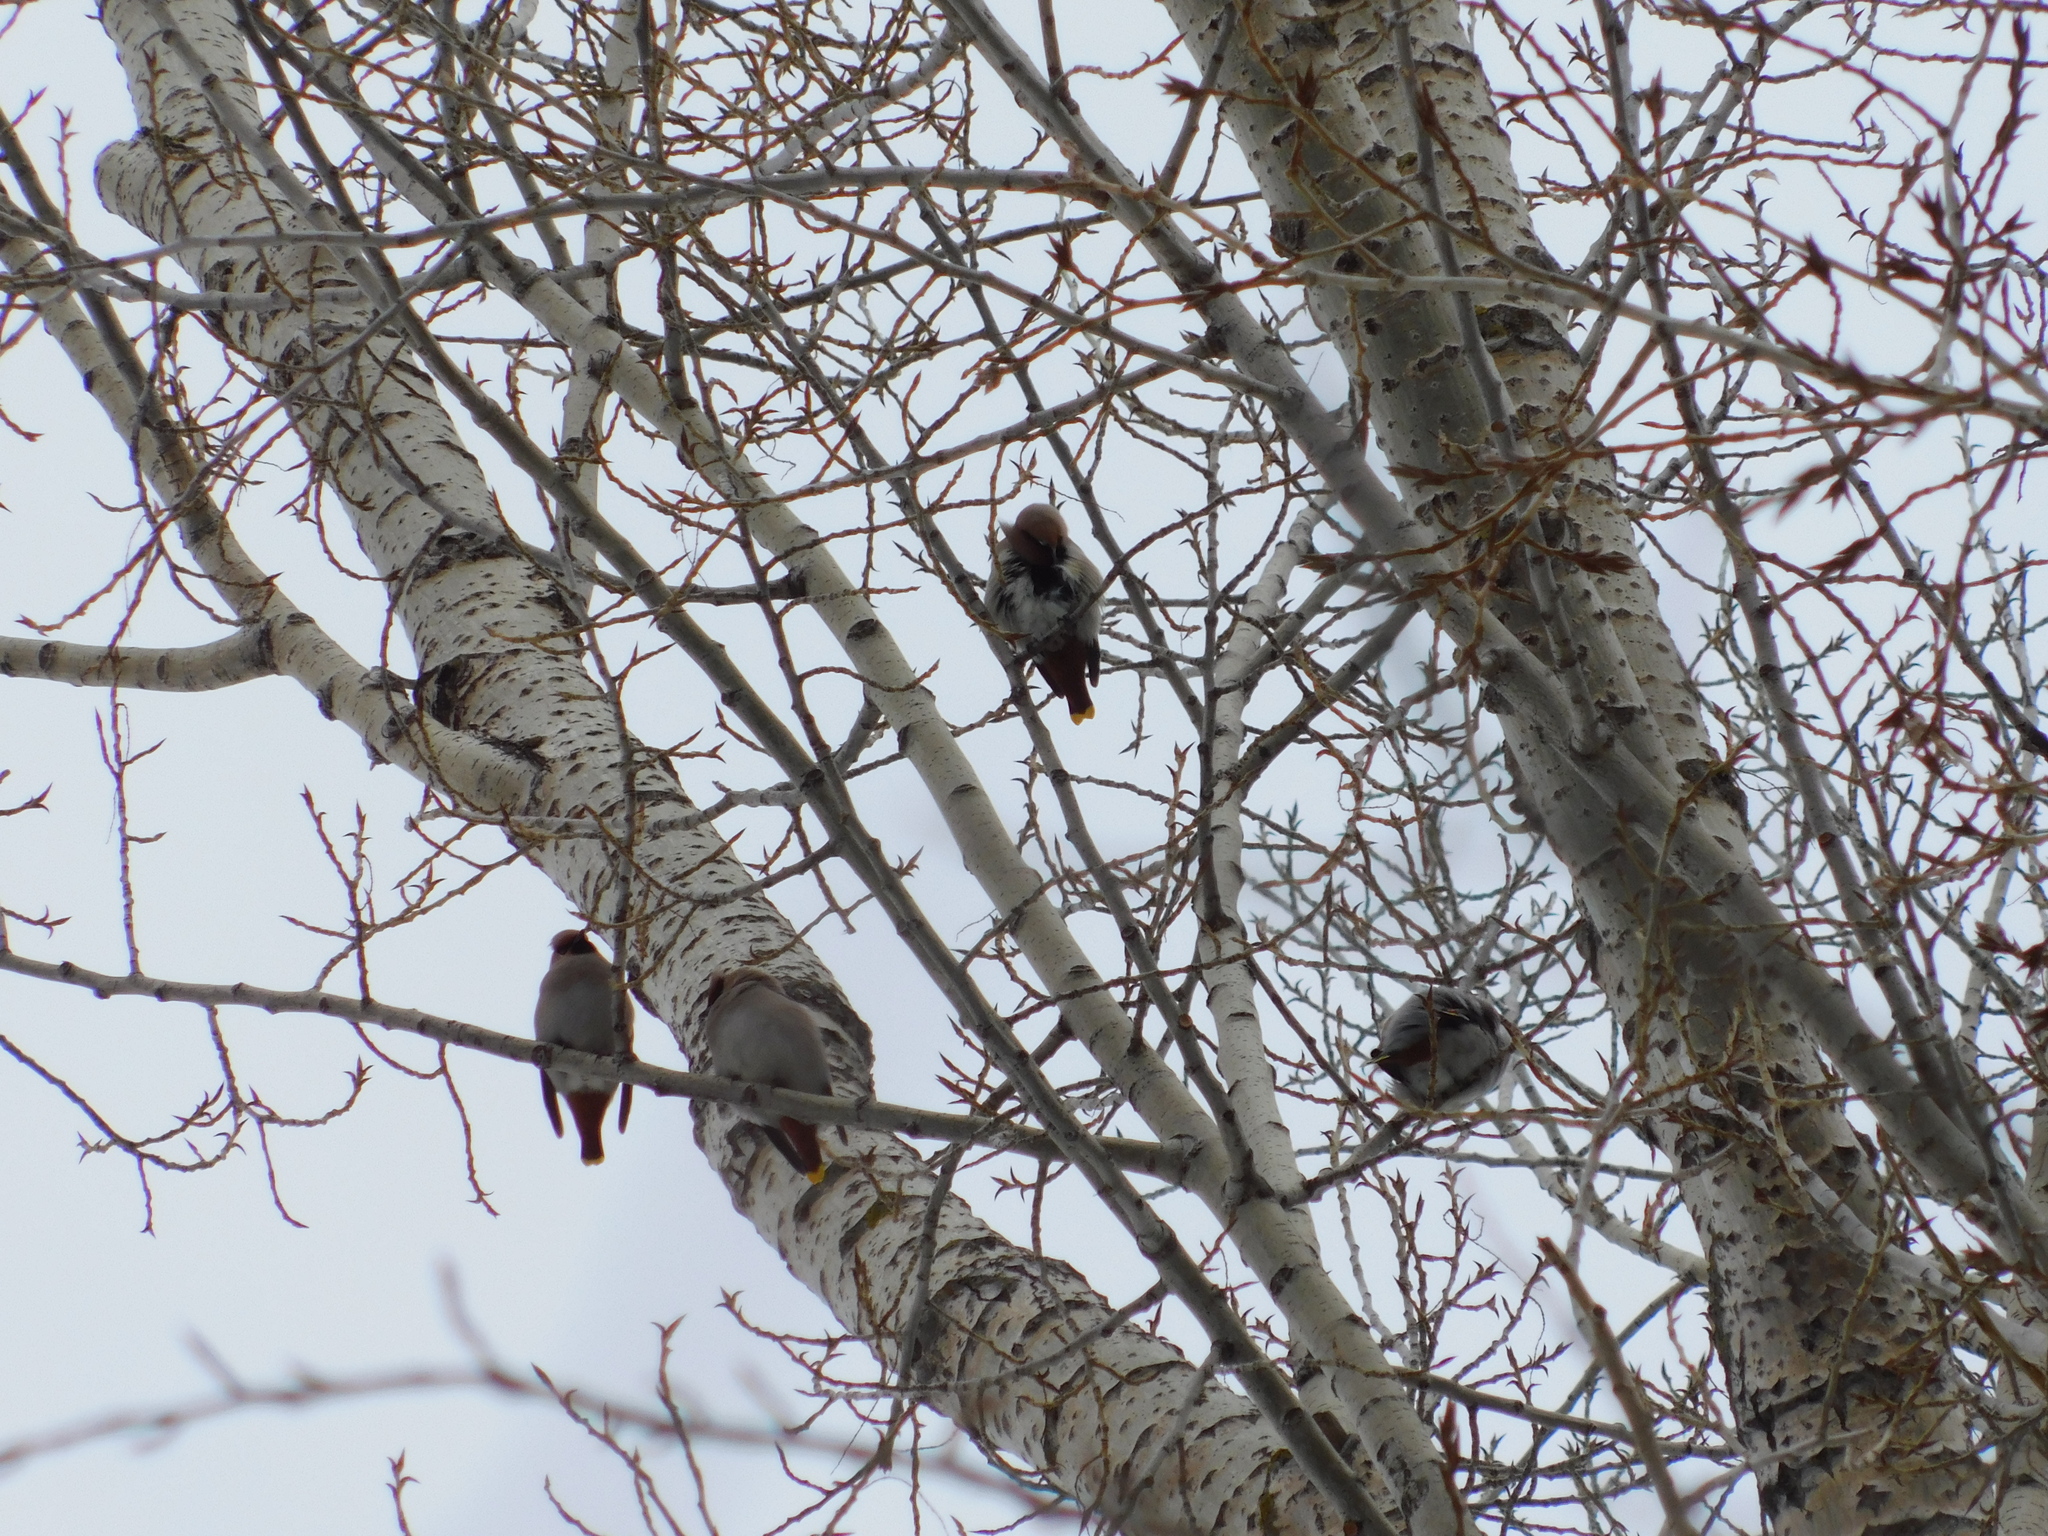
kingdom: Animalia
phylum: Chordata
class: Aves
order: Passeriformes
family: Bombycillidae
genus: Bombycilla
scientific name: Bombycilla garrulus
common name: Bohemian waxwing
